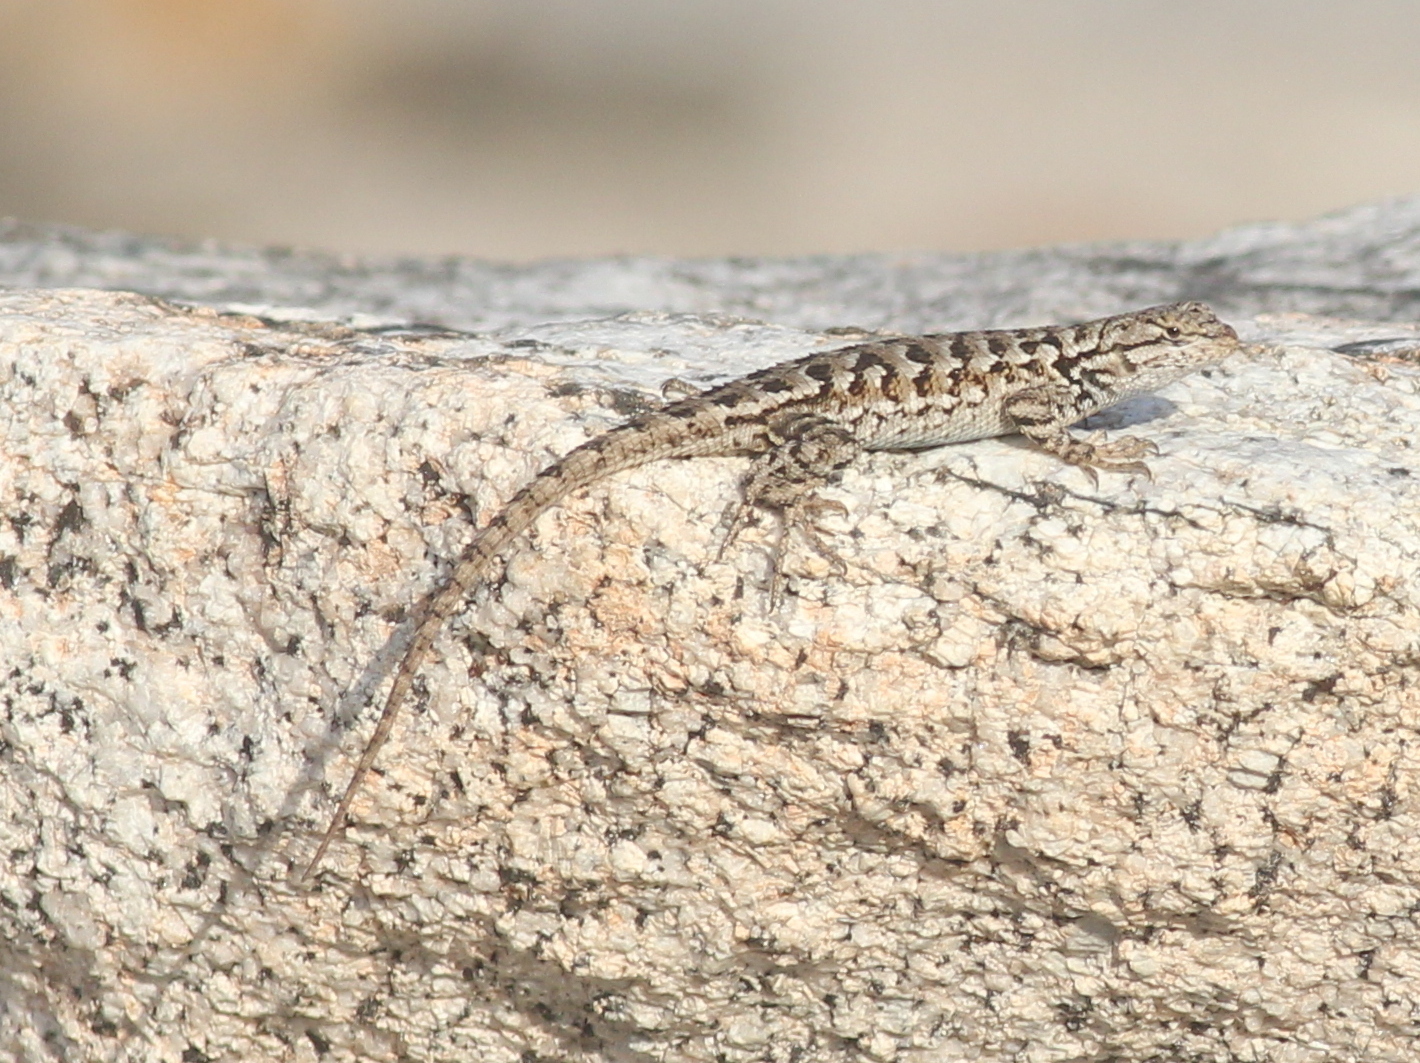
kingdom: Animalia
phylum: Chordata
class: Squamata
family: Phrynosomatidae
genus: Sceloporus
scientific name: Sceloporus occidentalis
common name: Western fence lizard
